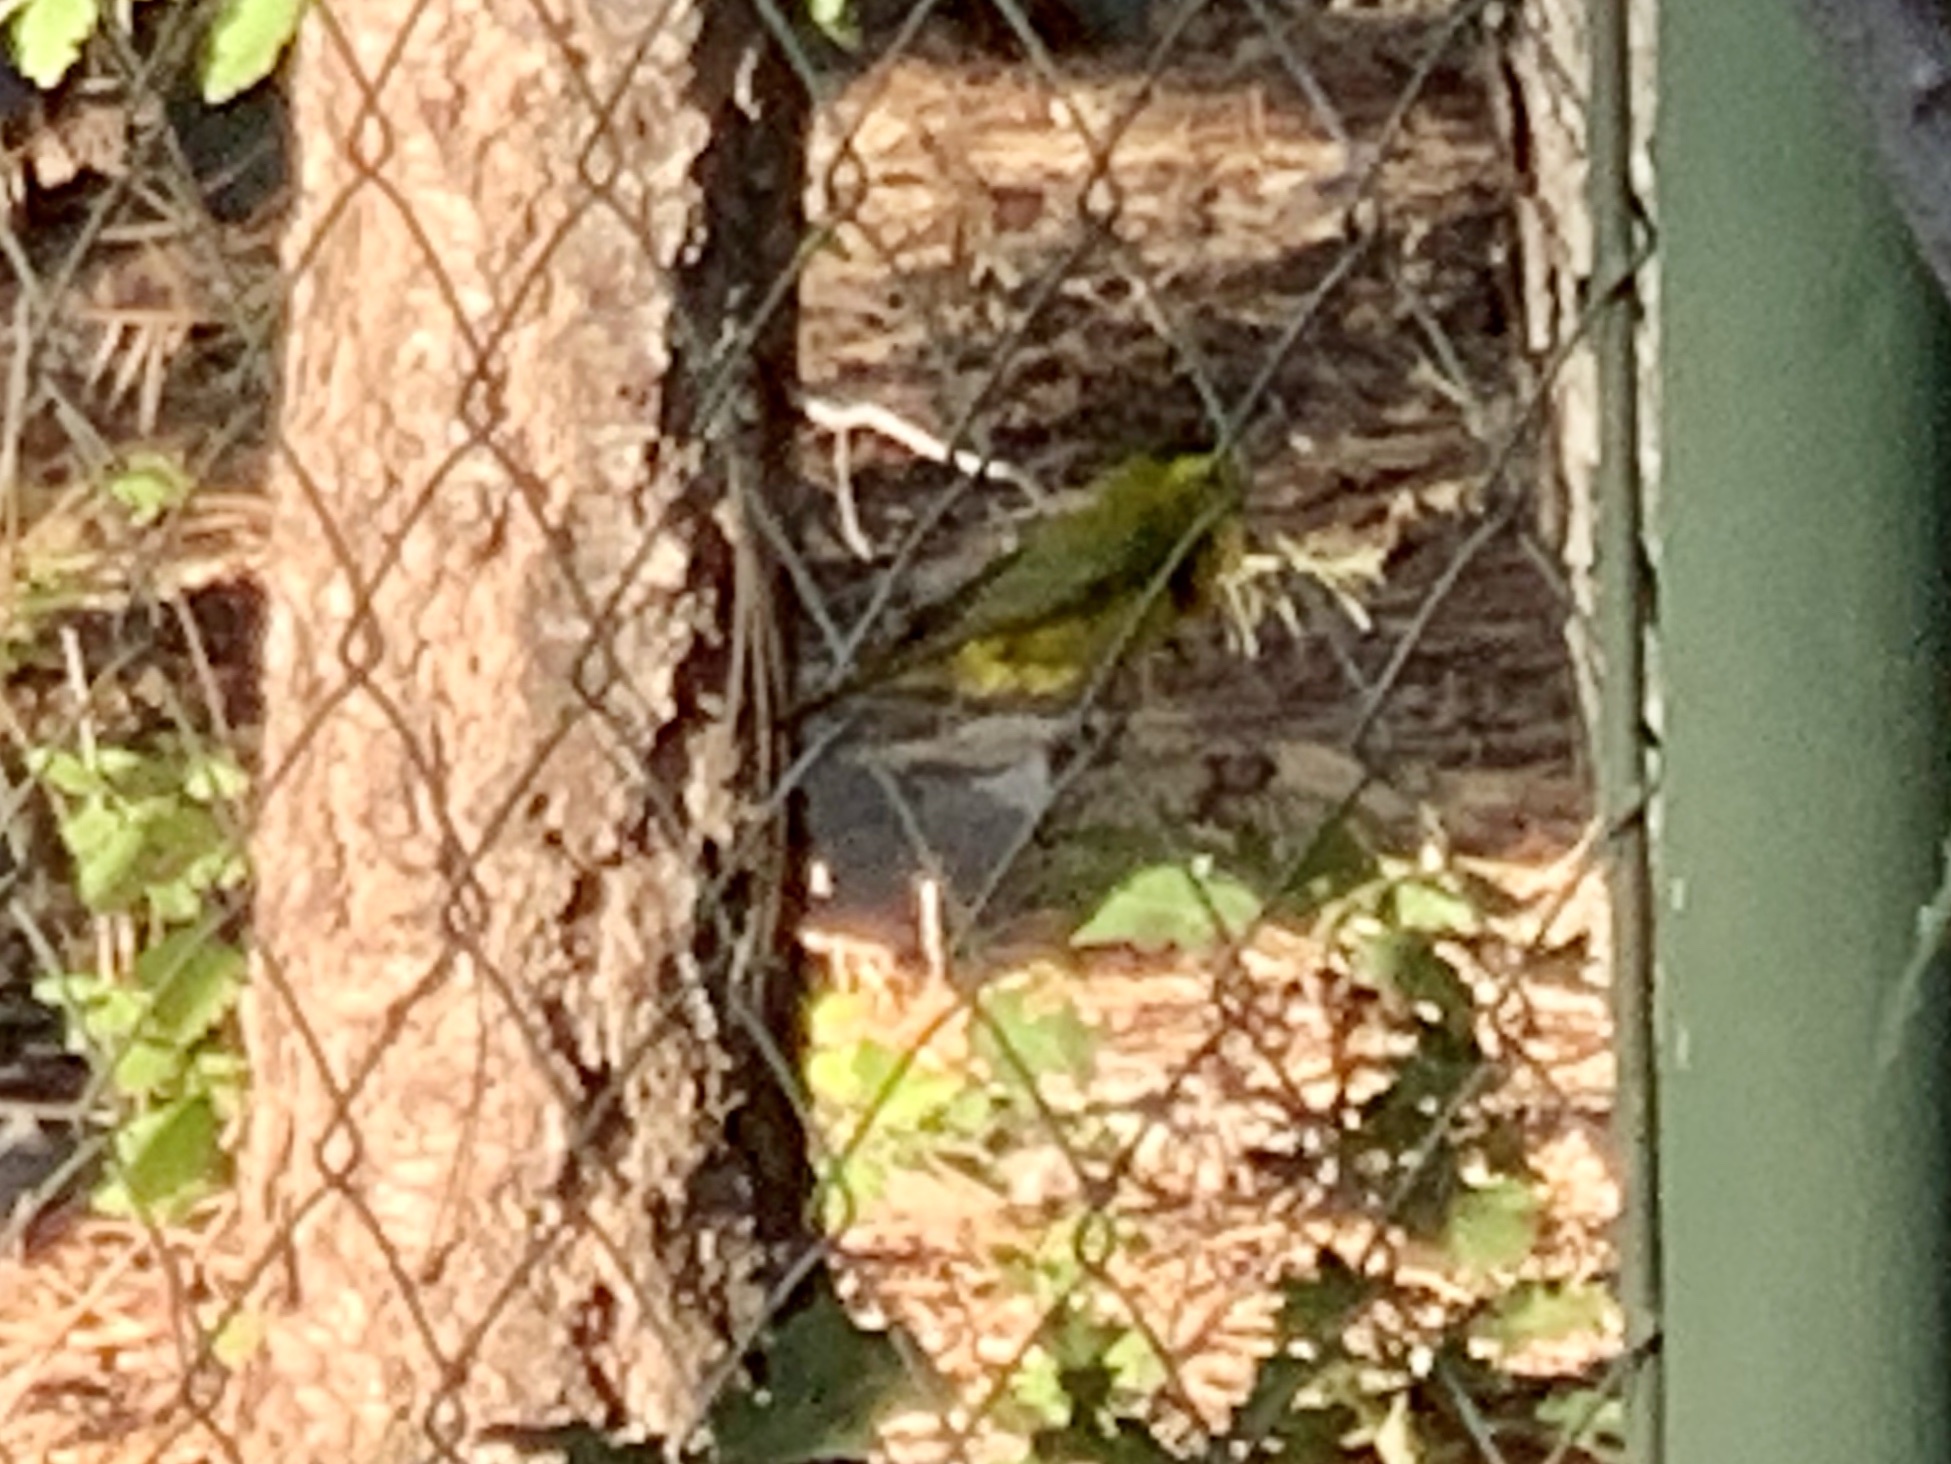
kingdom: Animalia
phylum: Chordata
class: Aves
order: Passeriformes
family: Parulidae
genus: Cardellina
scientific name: Cardellina pusilla
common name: Wilson's warbler
